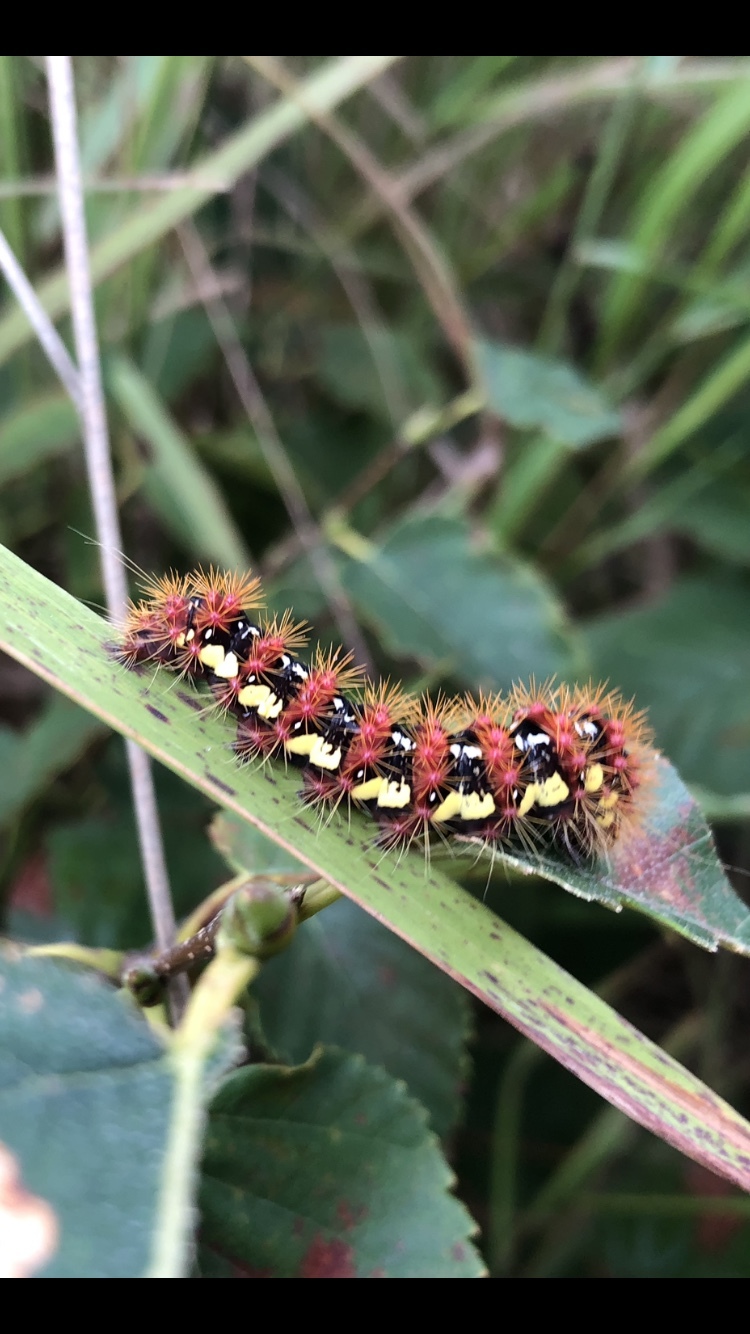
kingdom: Animalia
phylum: Arthropoda
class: Insecta
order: Lepidoptera
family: Noctuidae
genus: Acronicta
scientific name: Acronicta oblinita
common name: Smeared dagger
